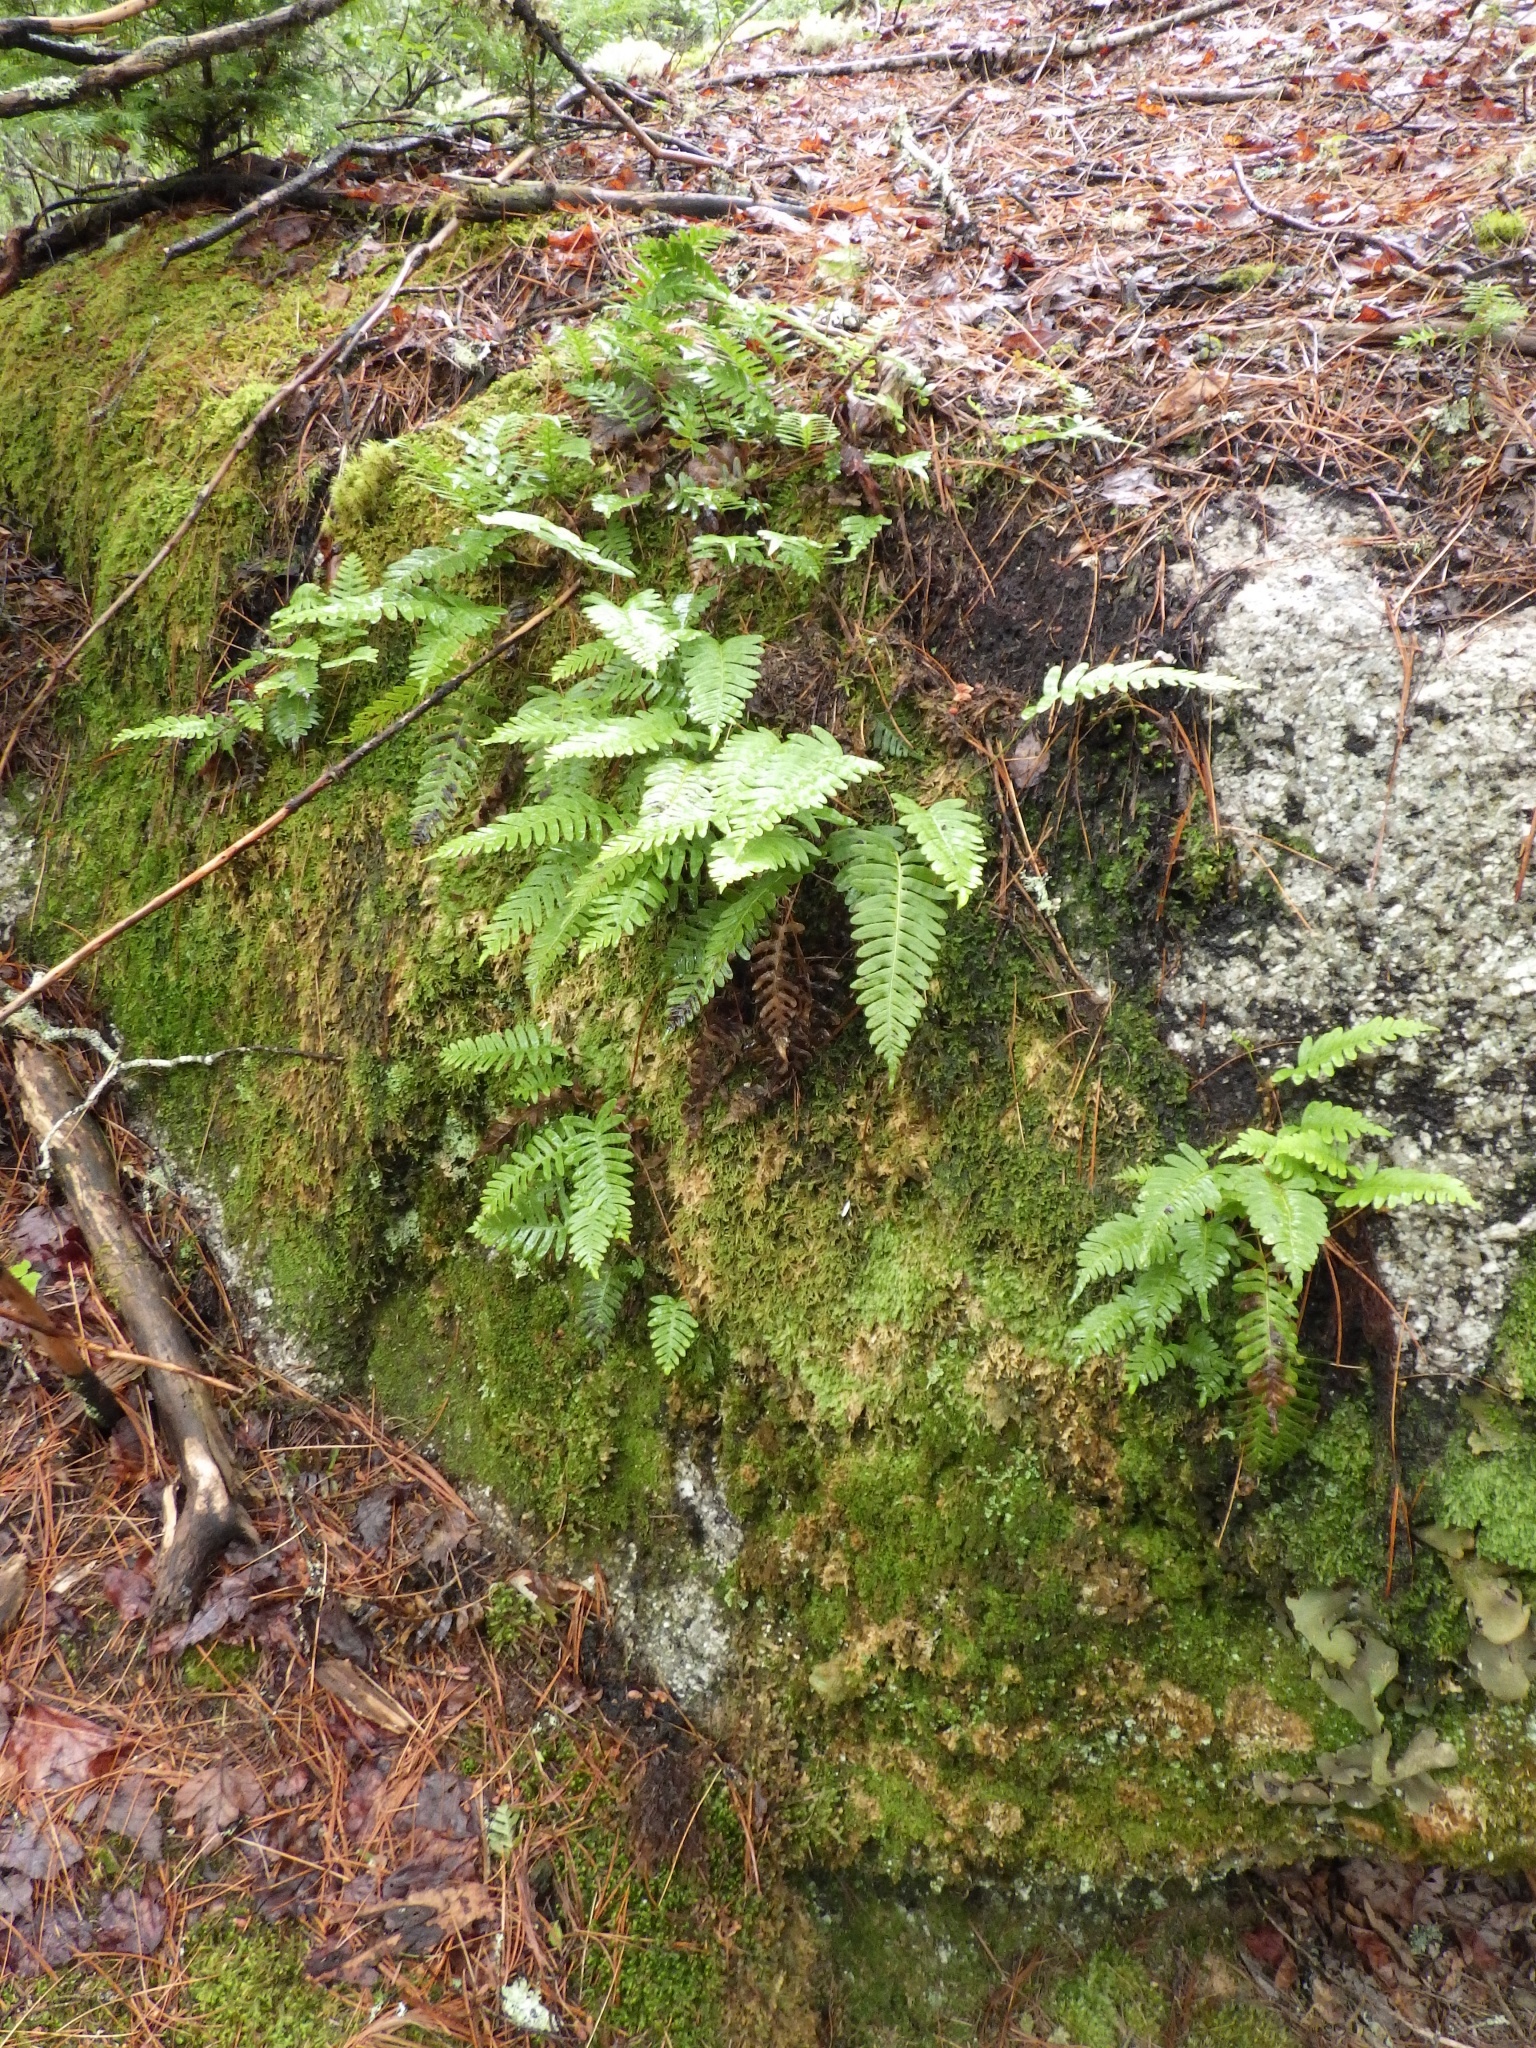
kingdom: Plantae
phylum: Tracheophyta
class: Polypodiopsida
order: Polypodiales
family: Polypodiaceae
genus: Polypodium
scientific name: Polypodium virginianum
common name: American wall fern
